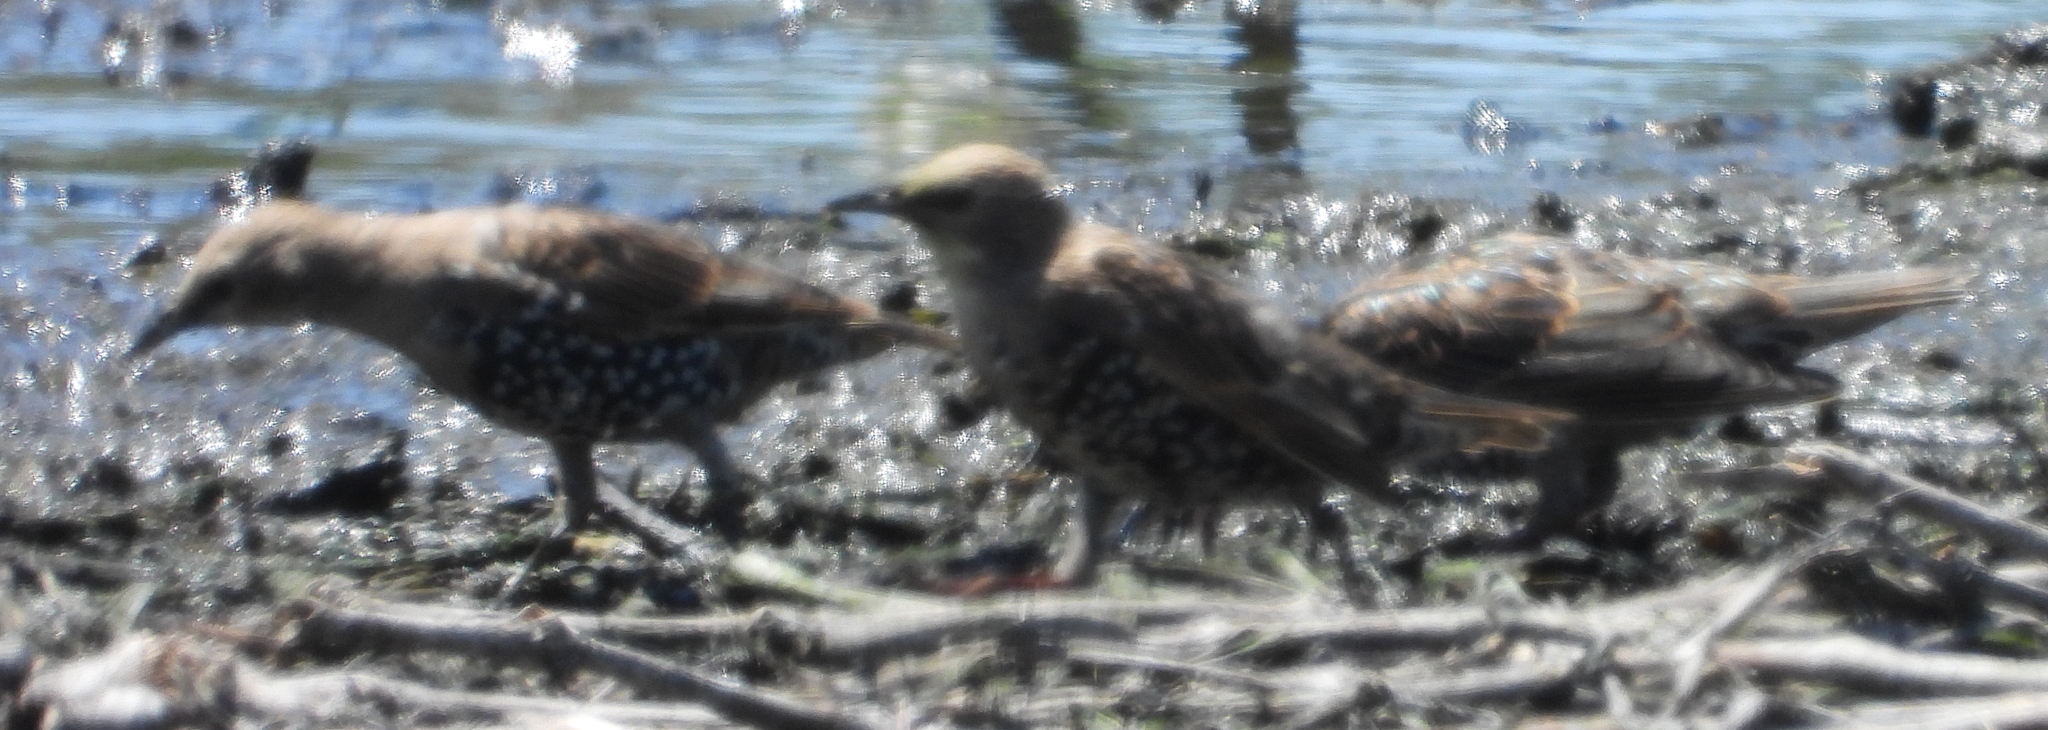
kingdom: Animalia
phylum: Chordata
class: Aves
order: Passeriformes
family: Sturnidae
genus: Sturnus
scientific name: Sturnus vulgaris
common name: Common starling
